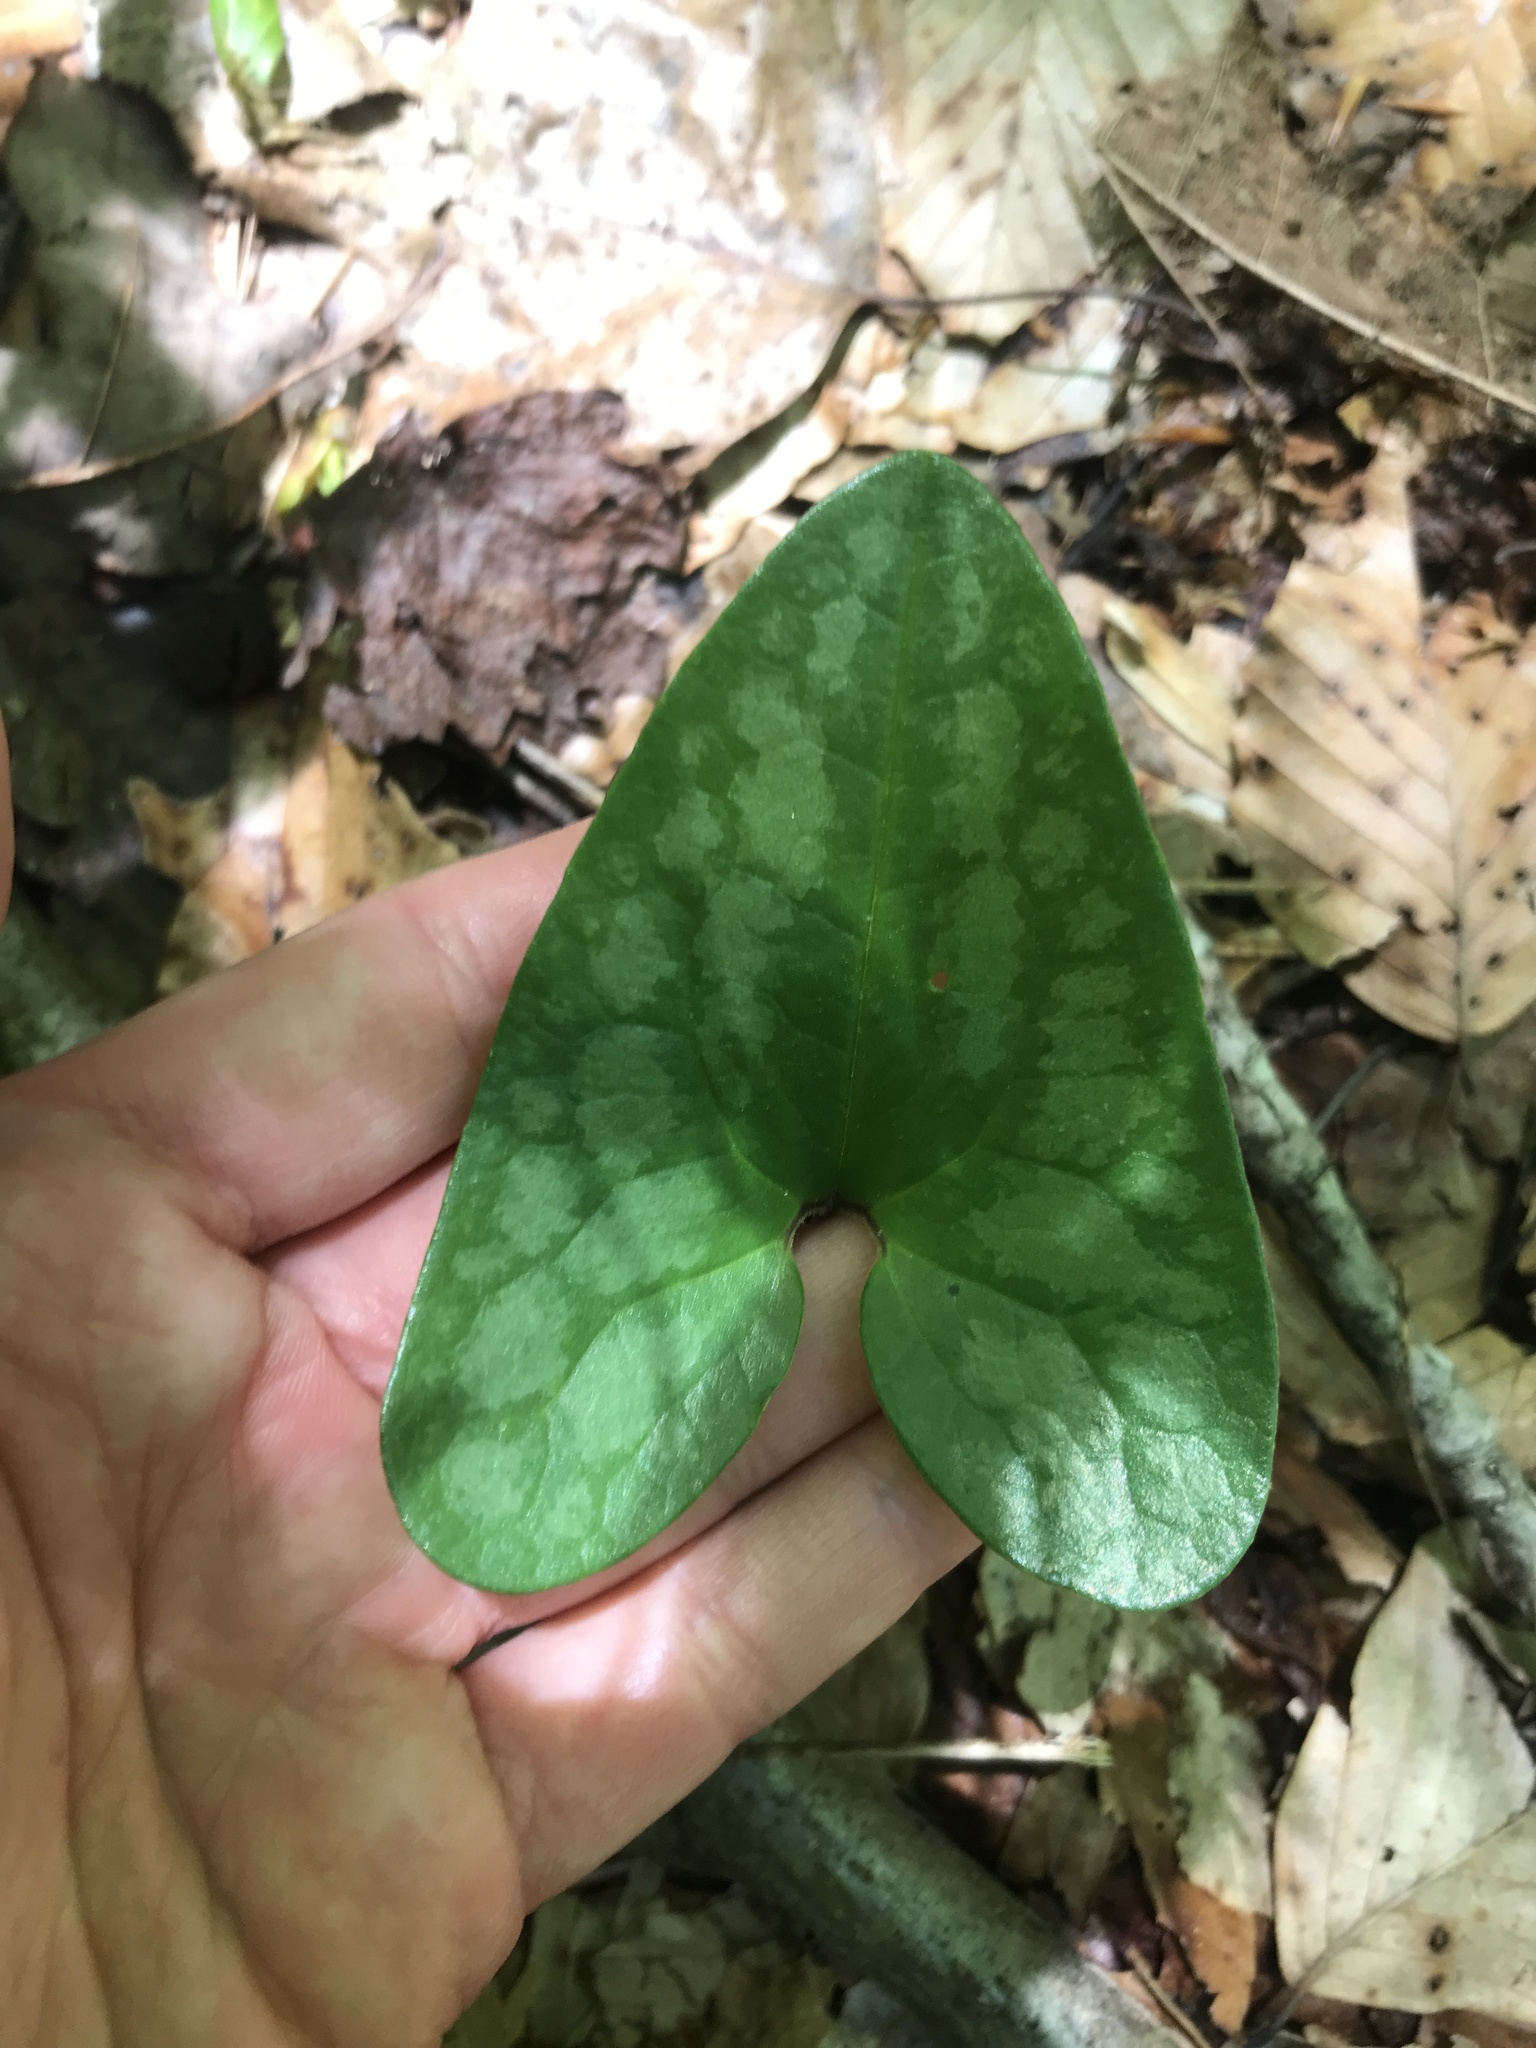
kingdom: Plantae
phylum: Tracheophyta
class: Magnoliopsida
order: Piperales
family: Aristolochiaceae
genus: Hexastylis
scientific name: Hexastylis arifolia
